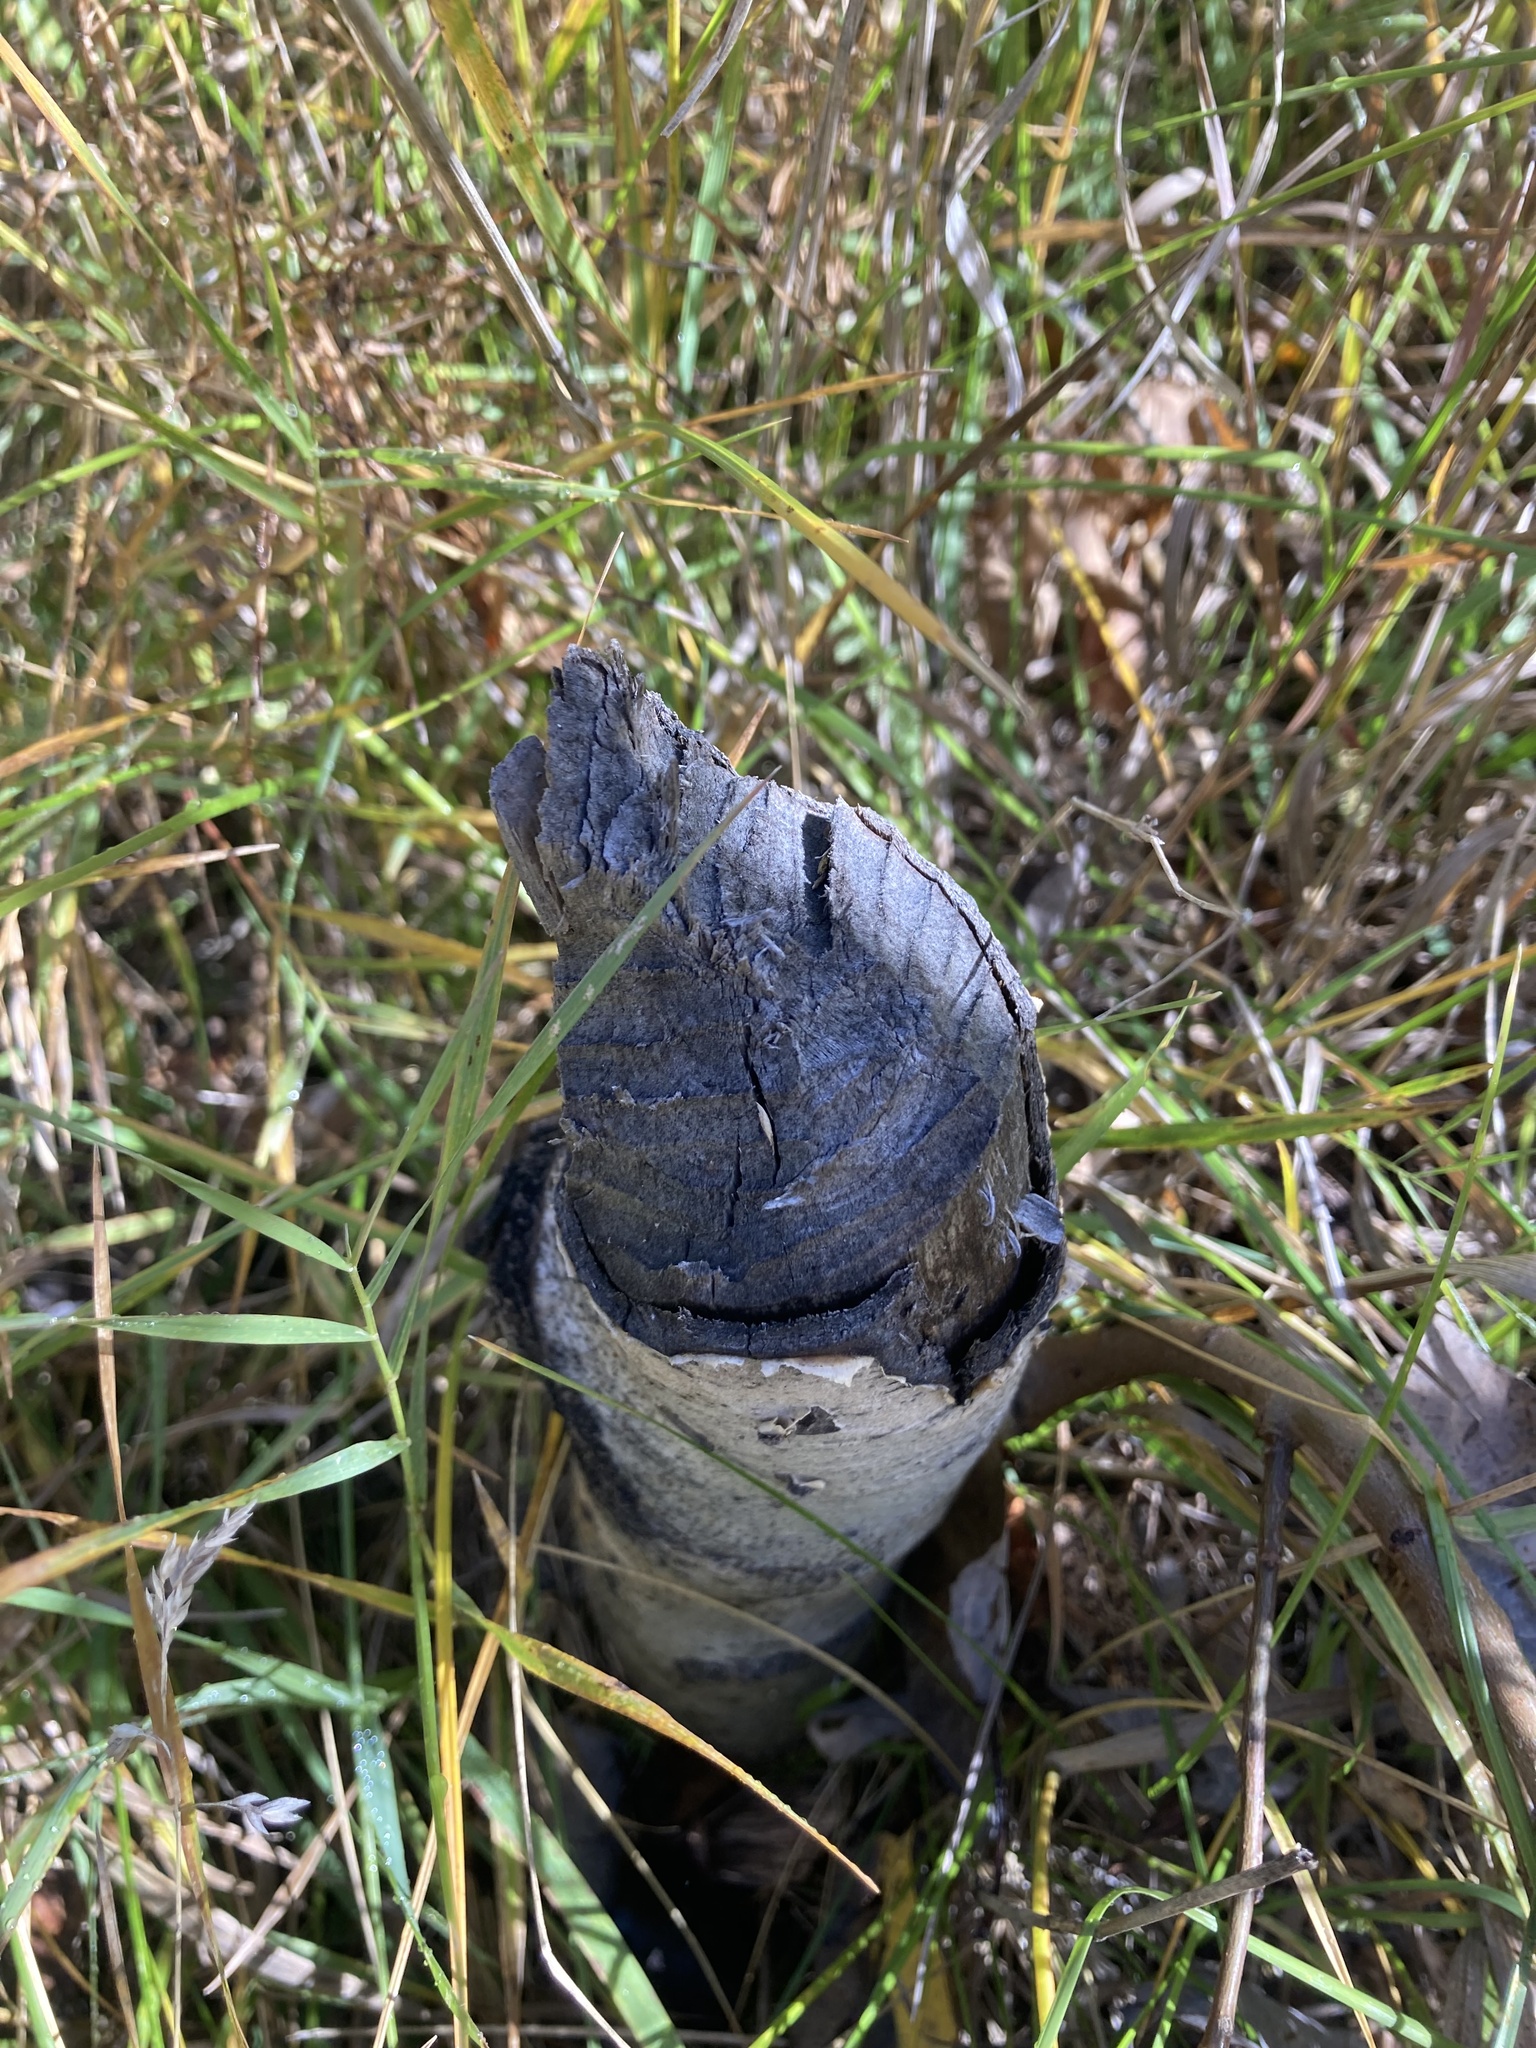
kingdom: Animalia
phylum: Chordata
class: Mammalia
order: Rodentia
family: Castoridae
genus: Castor
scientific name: Castor canadensis
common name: American beaver
